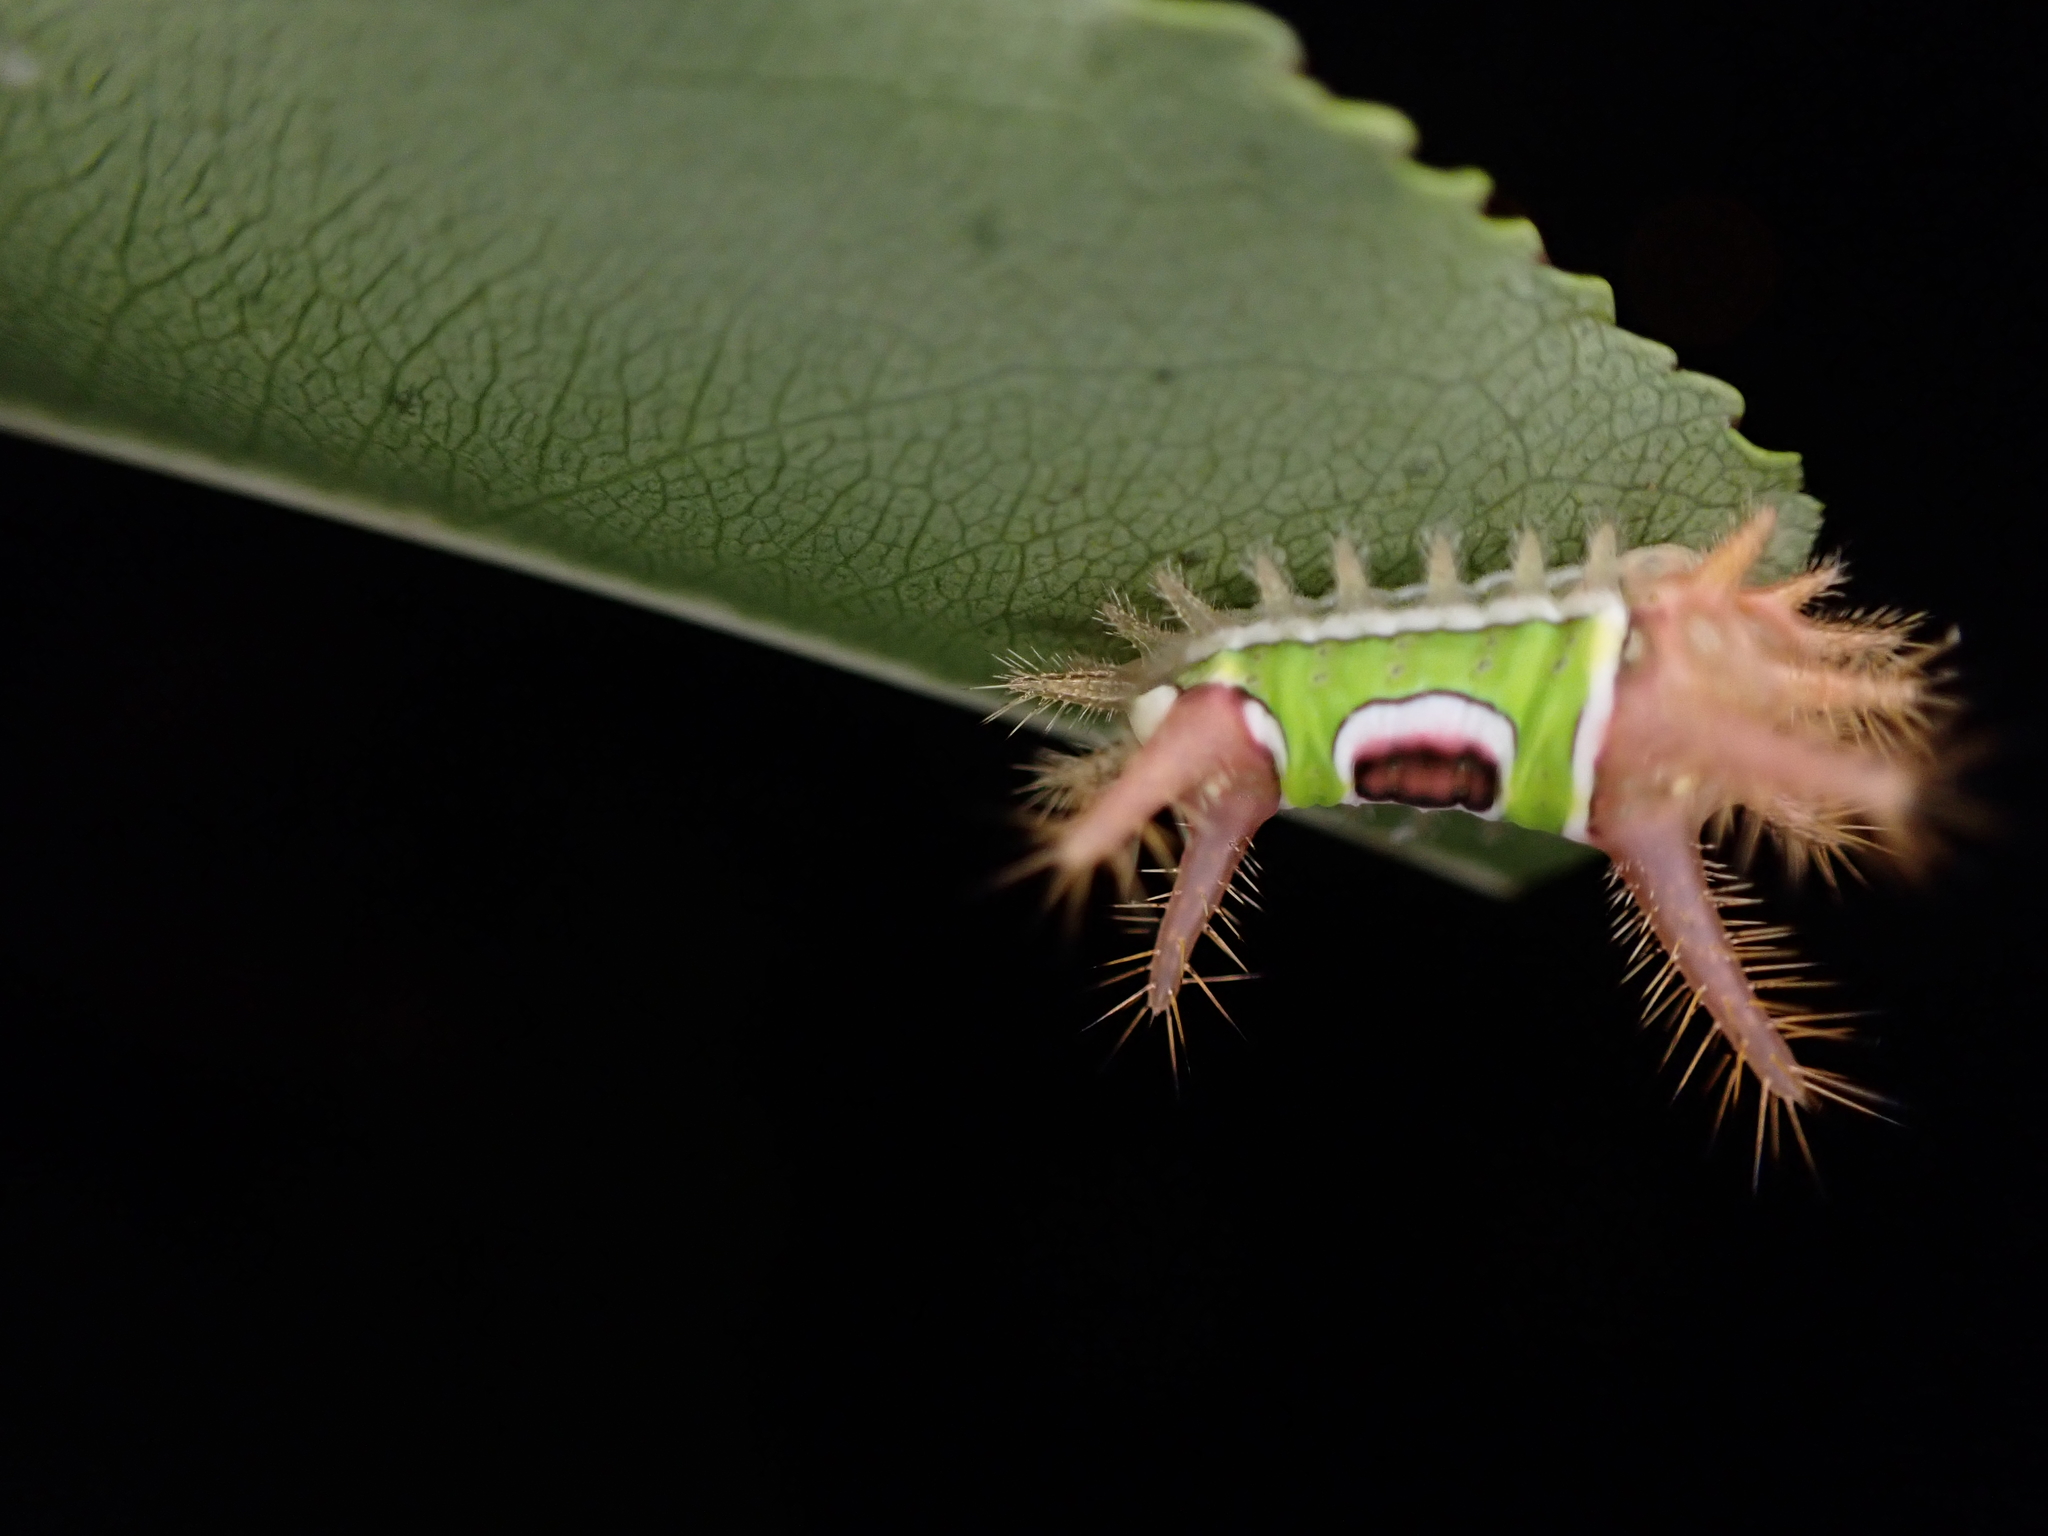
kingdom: Animalia
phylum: Arthropoda
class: Insecta
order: Lepidoptera
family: Limacodidae
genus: Acharia
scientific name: Acharia stimulea
